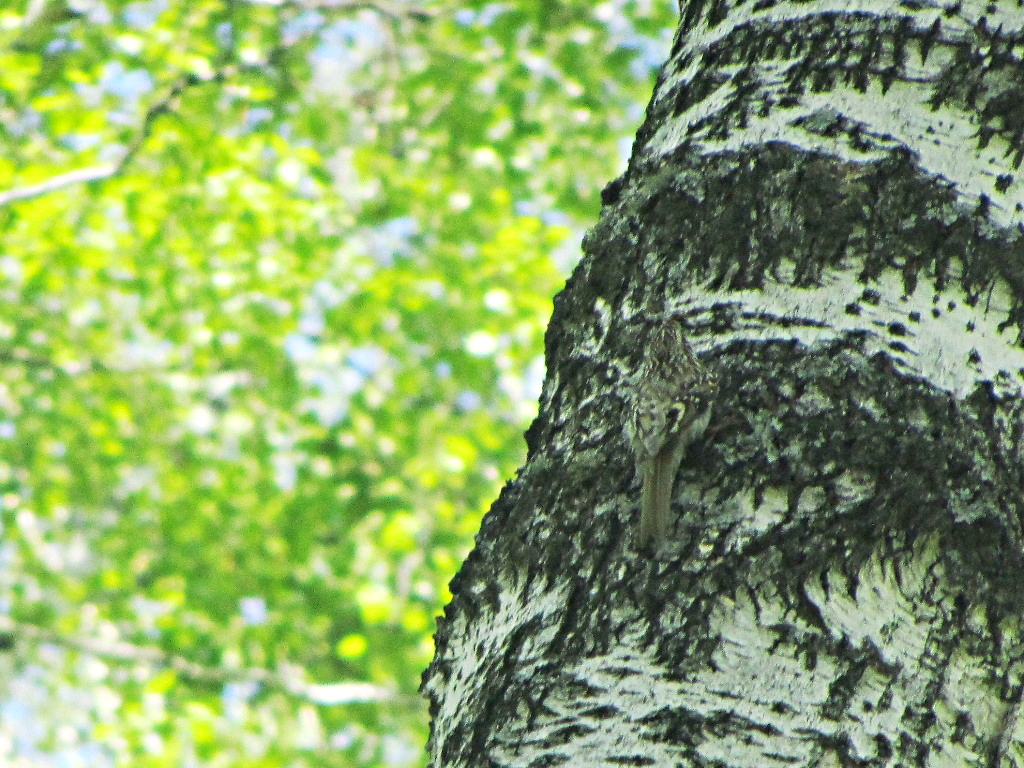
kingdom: Animalia
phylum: Chordata
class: Aves
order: Passeriformes
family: Certhiidae
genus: Certhia
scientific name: Certhia familiaris
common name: Eurasian treecreeper
